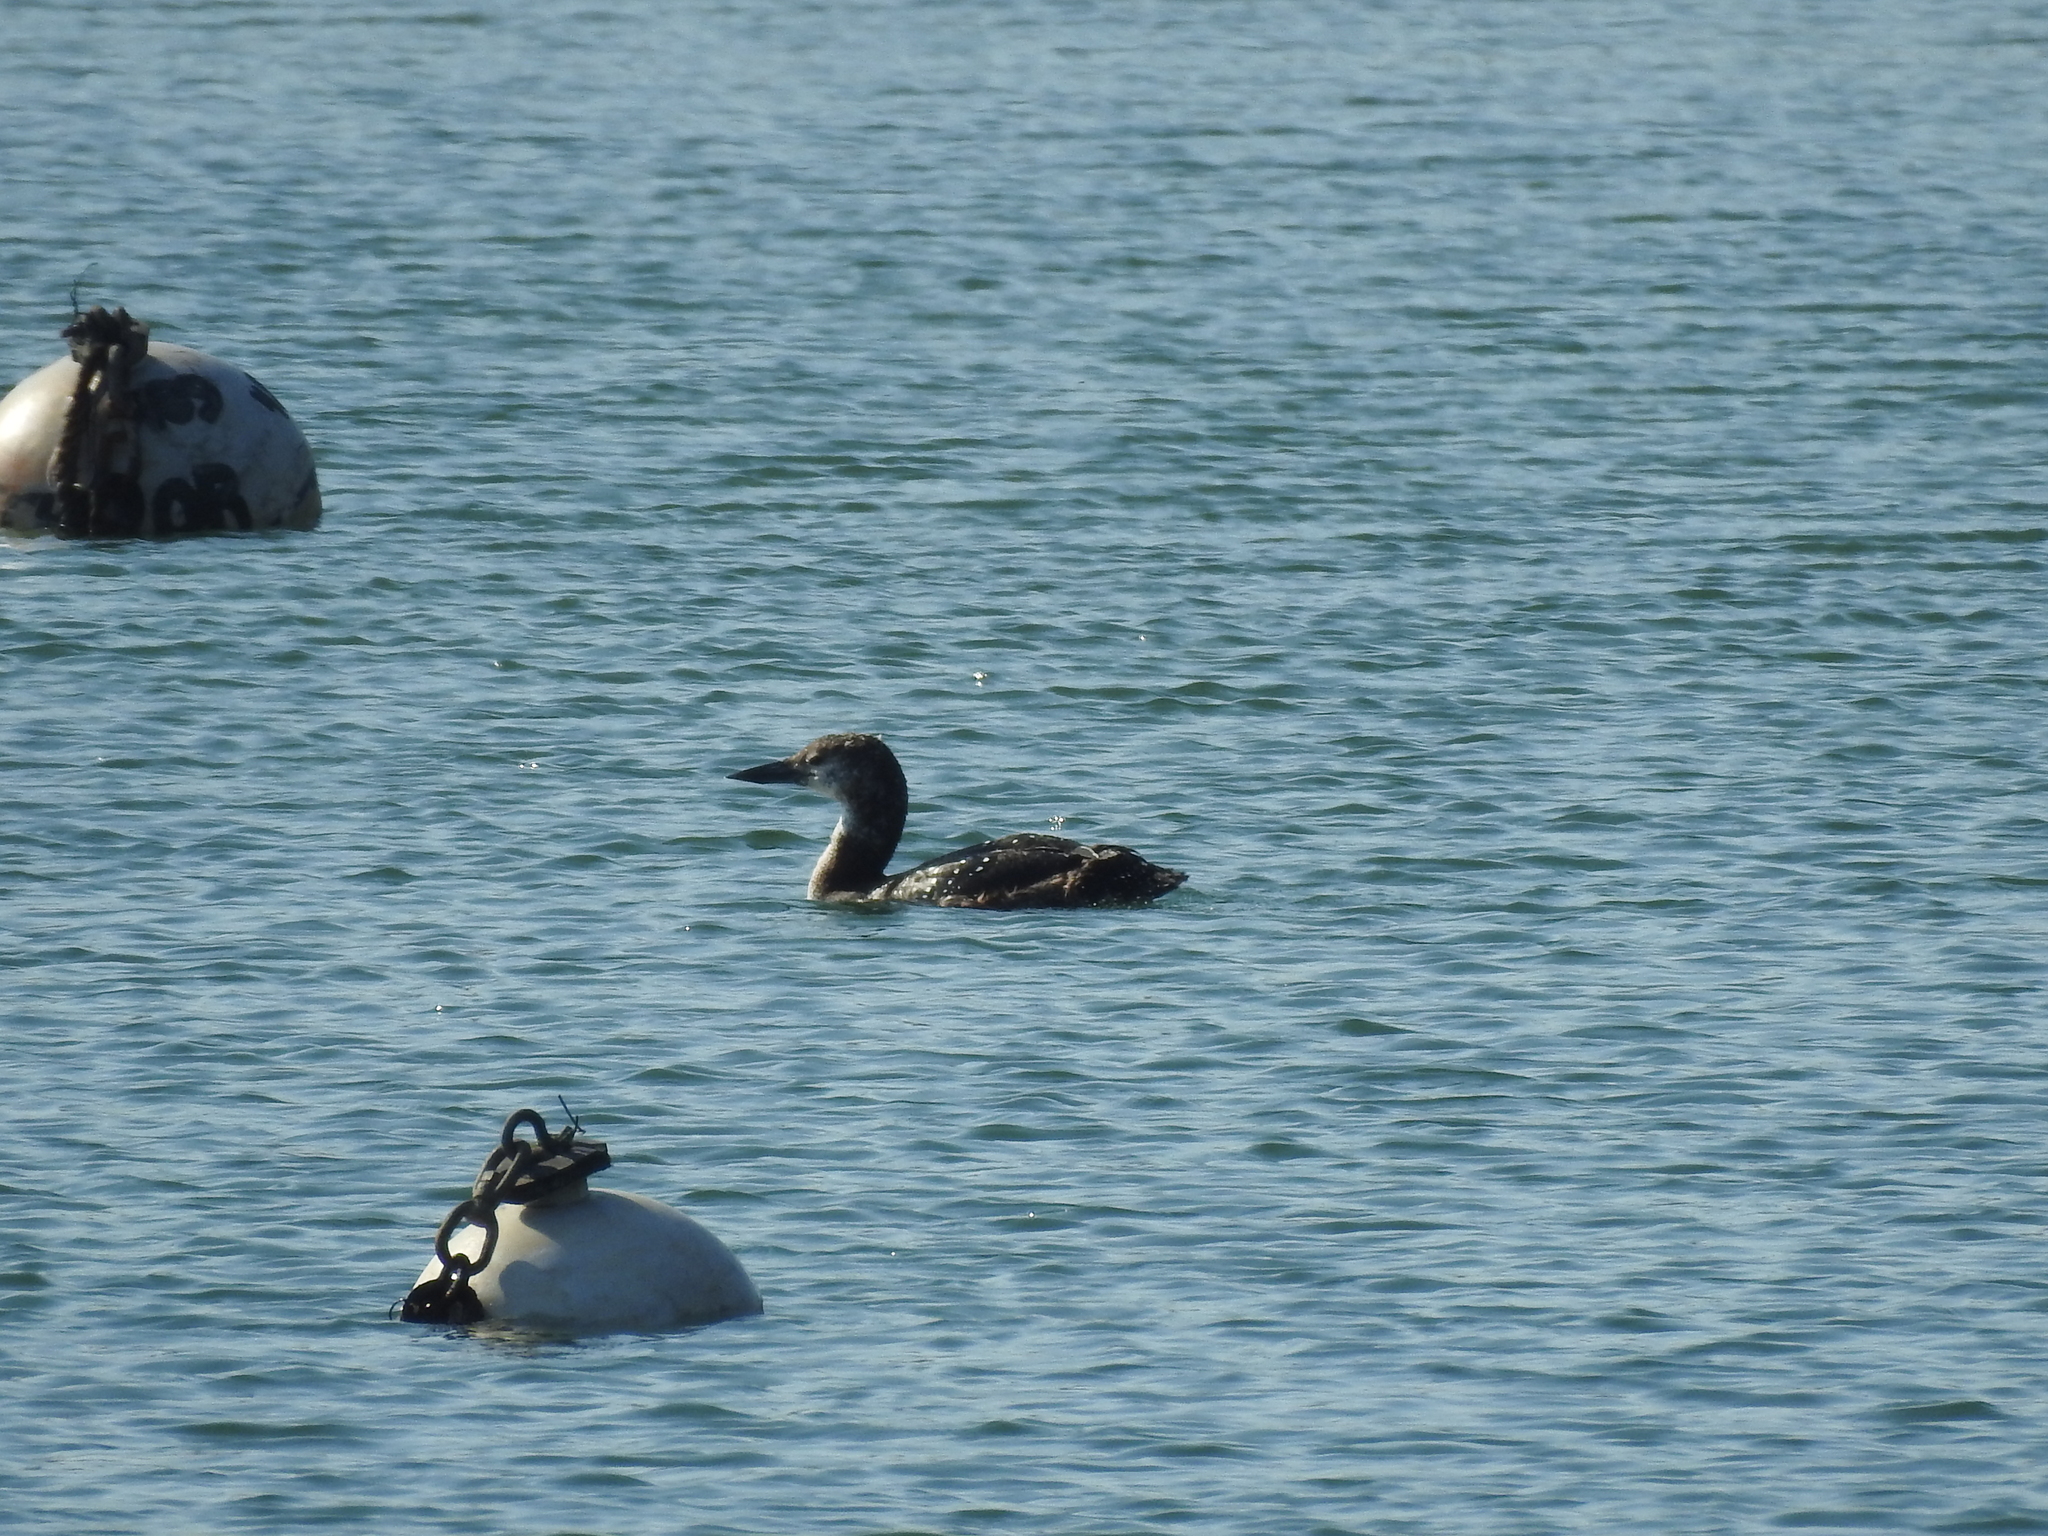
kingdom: Animalia
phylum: Chordata
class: Aves
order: Gaviiformes
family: Gaviidae
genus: Gavia
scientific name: Gavia immer
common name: Common loon
